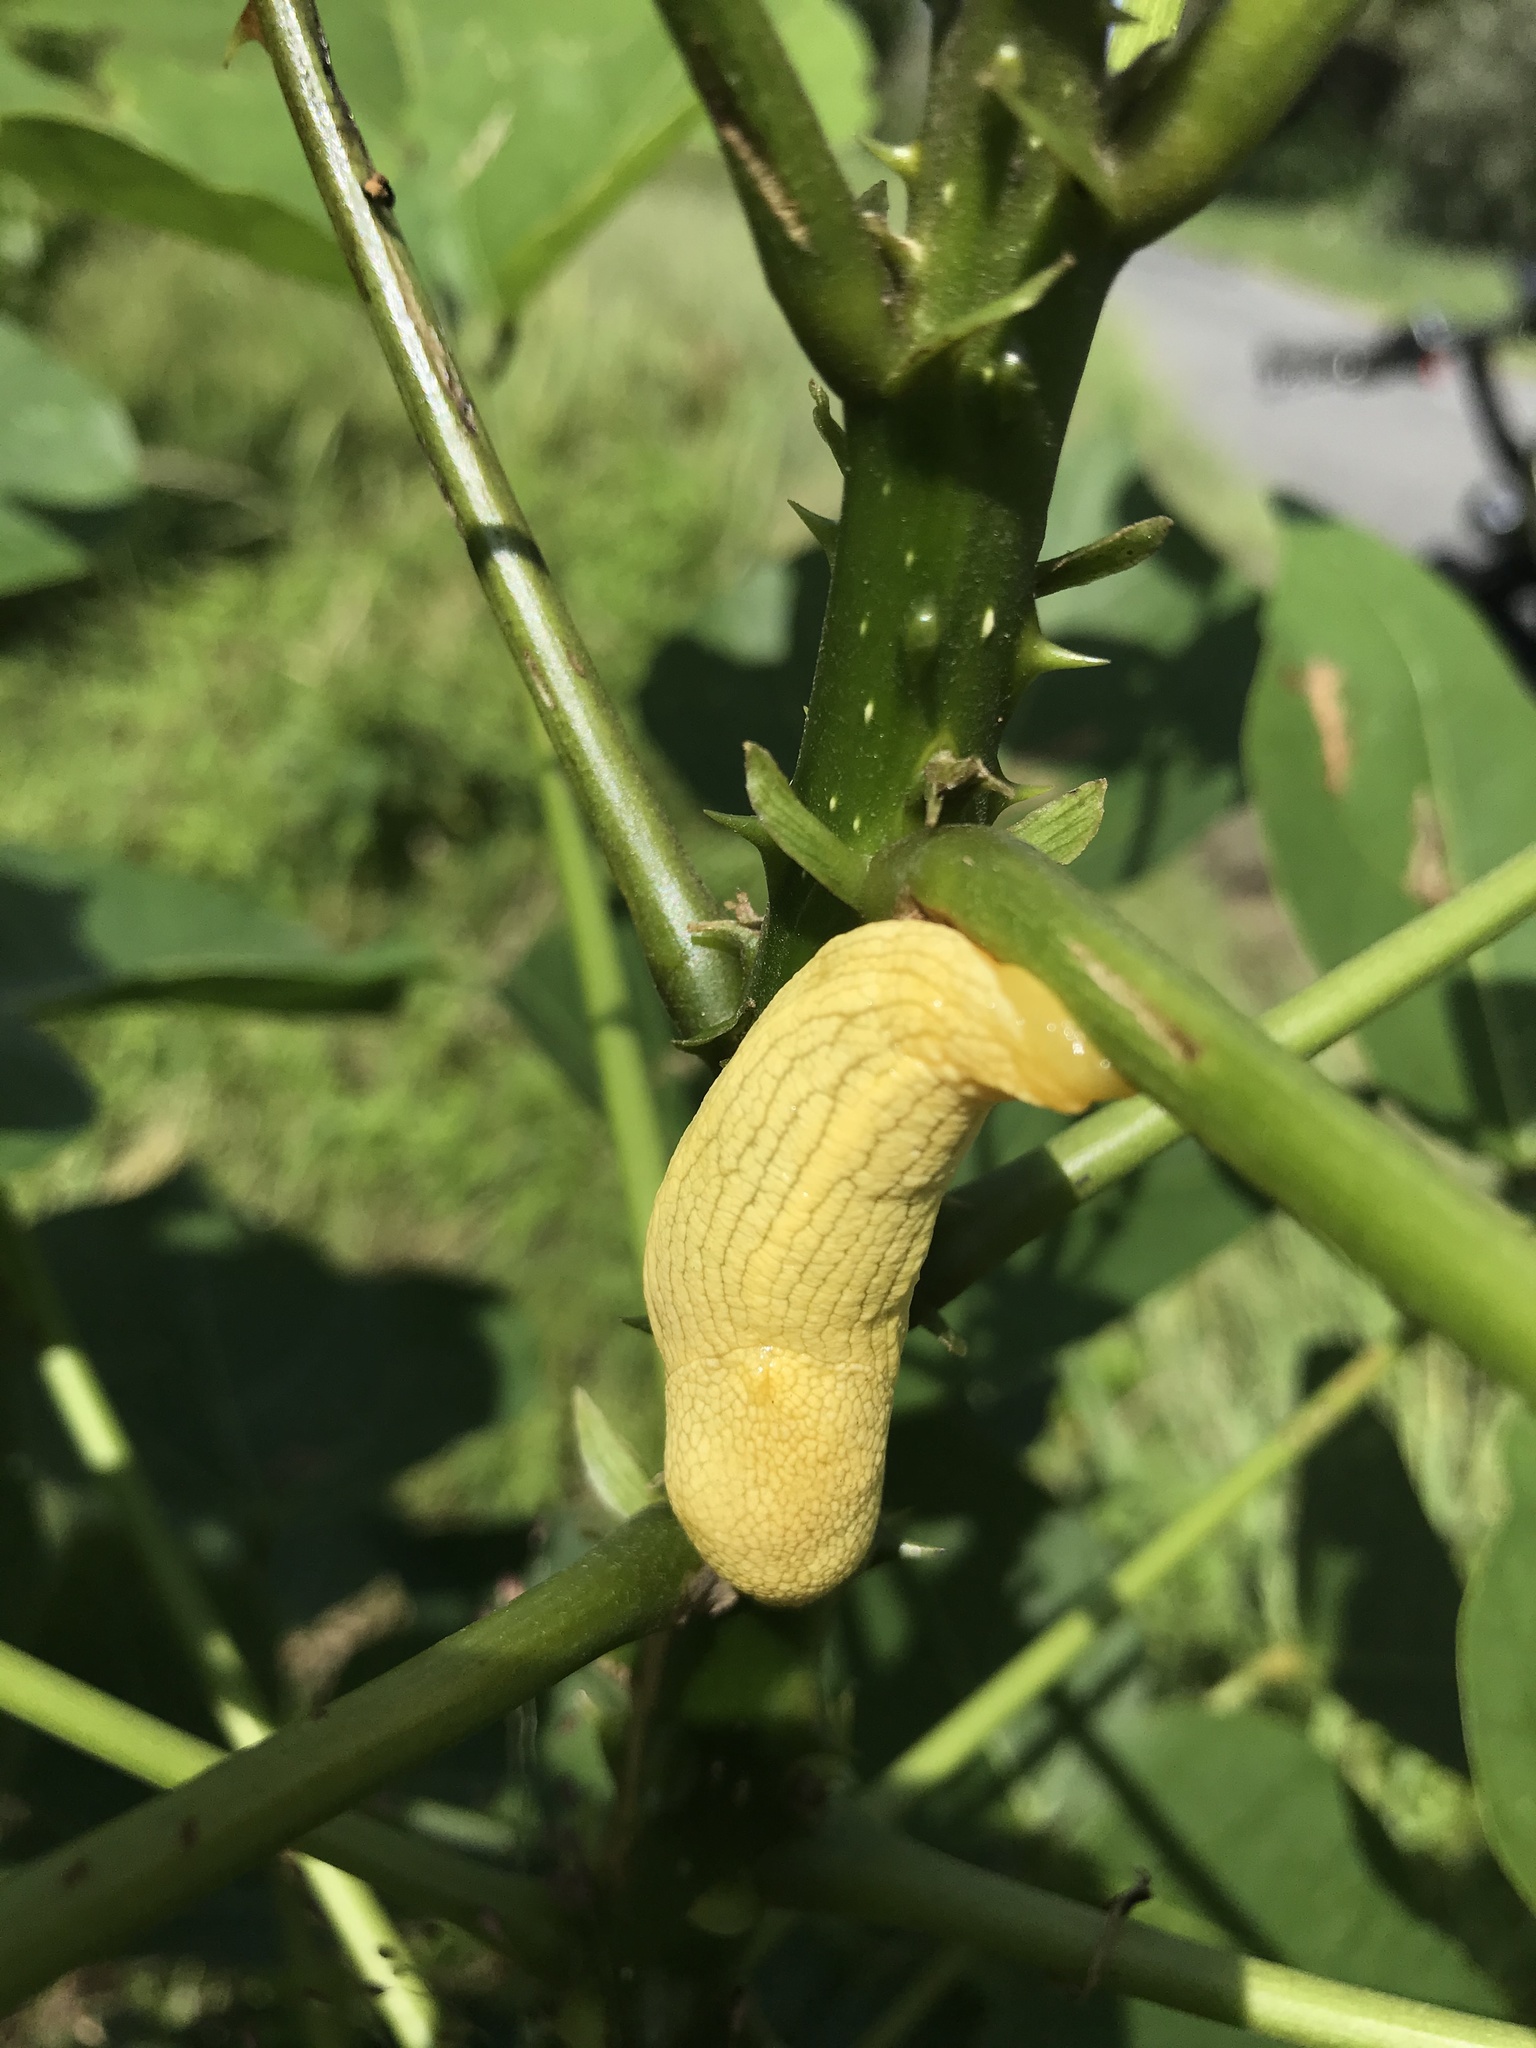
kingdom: Animalia
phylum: Mollusca
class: Gastropoda
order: Stylommatophora
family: Urocyclidae
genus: Elisolimax
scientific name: Elisolimax flavescens
